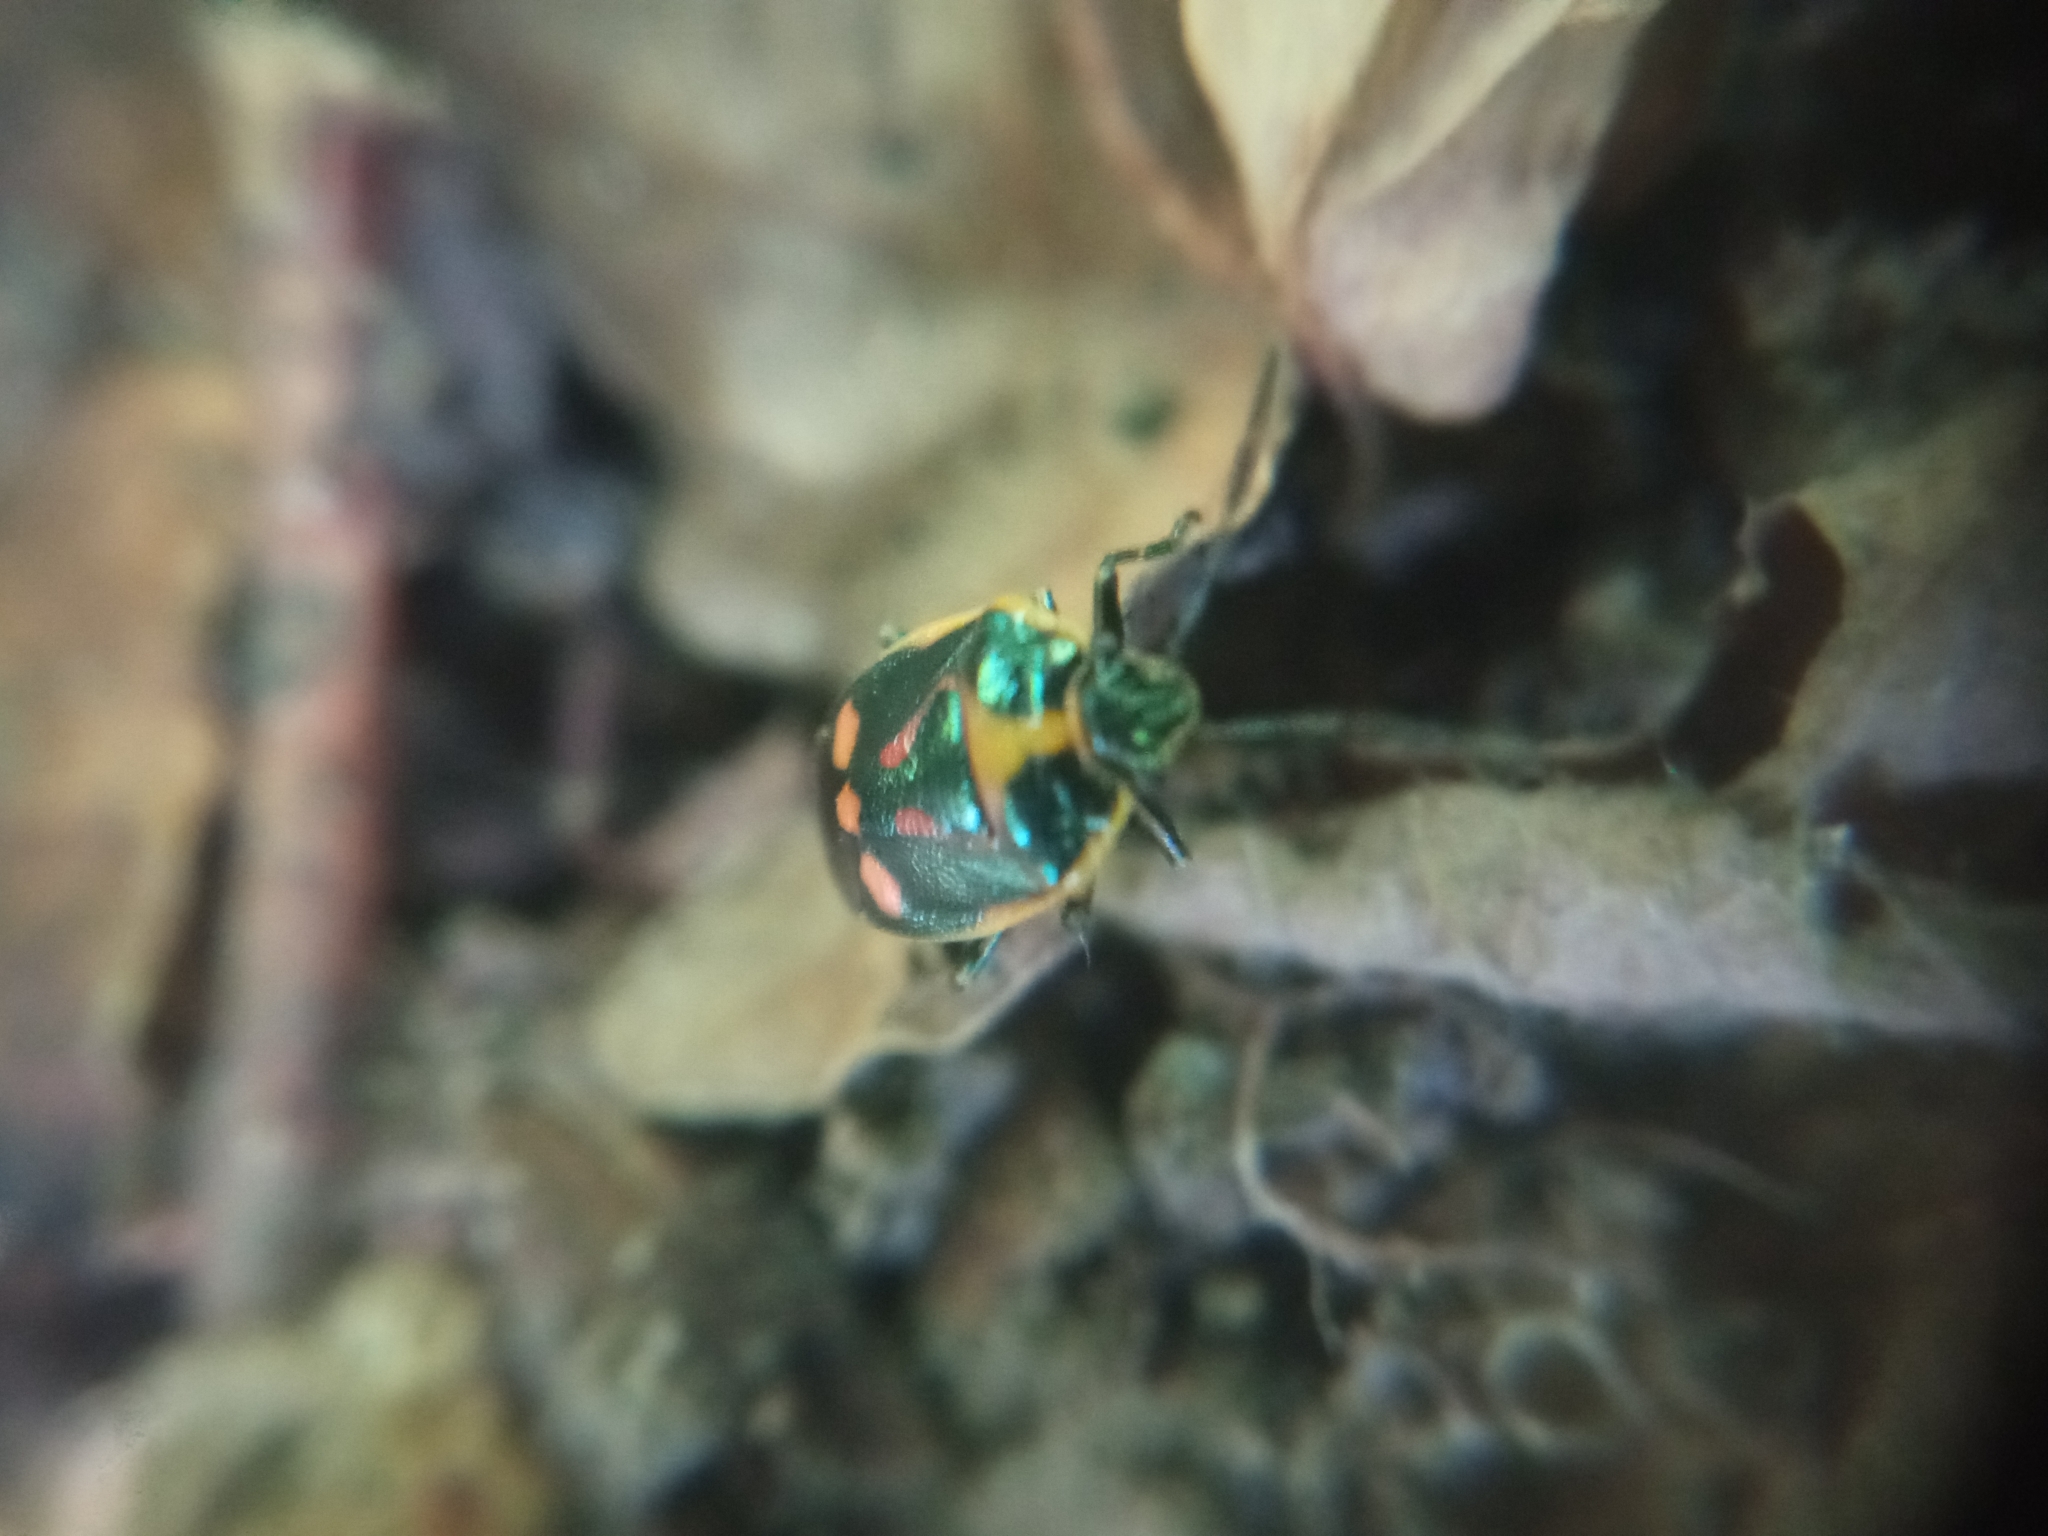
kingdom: Animalia
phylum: Arthropoda
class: Insecta
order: Hemiptera
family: Pentatomidae
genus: Eurydema
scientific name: Eurydema oleracea
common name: Cabbage bug
